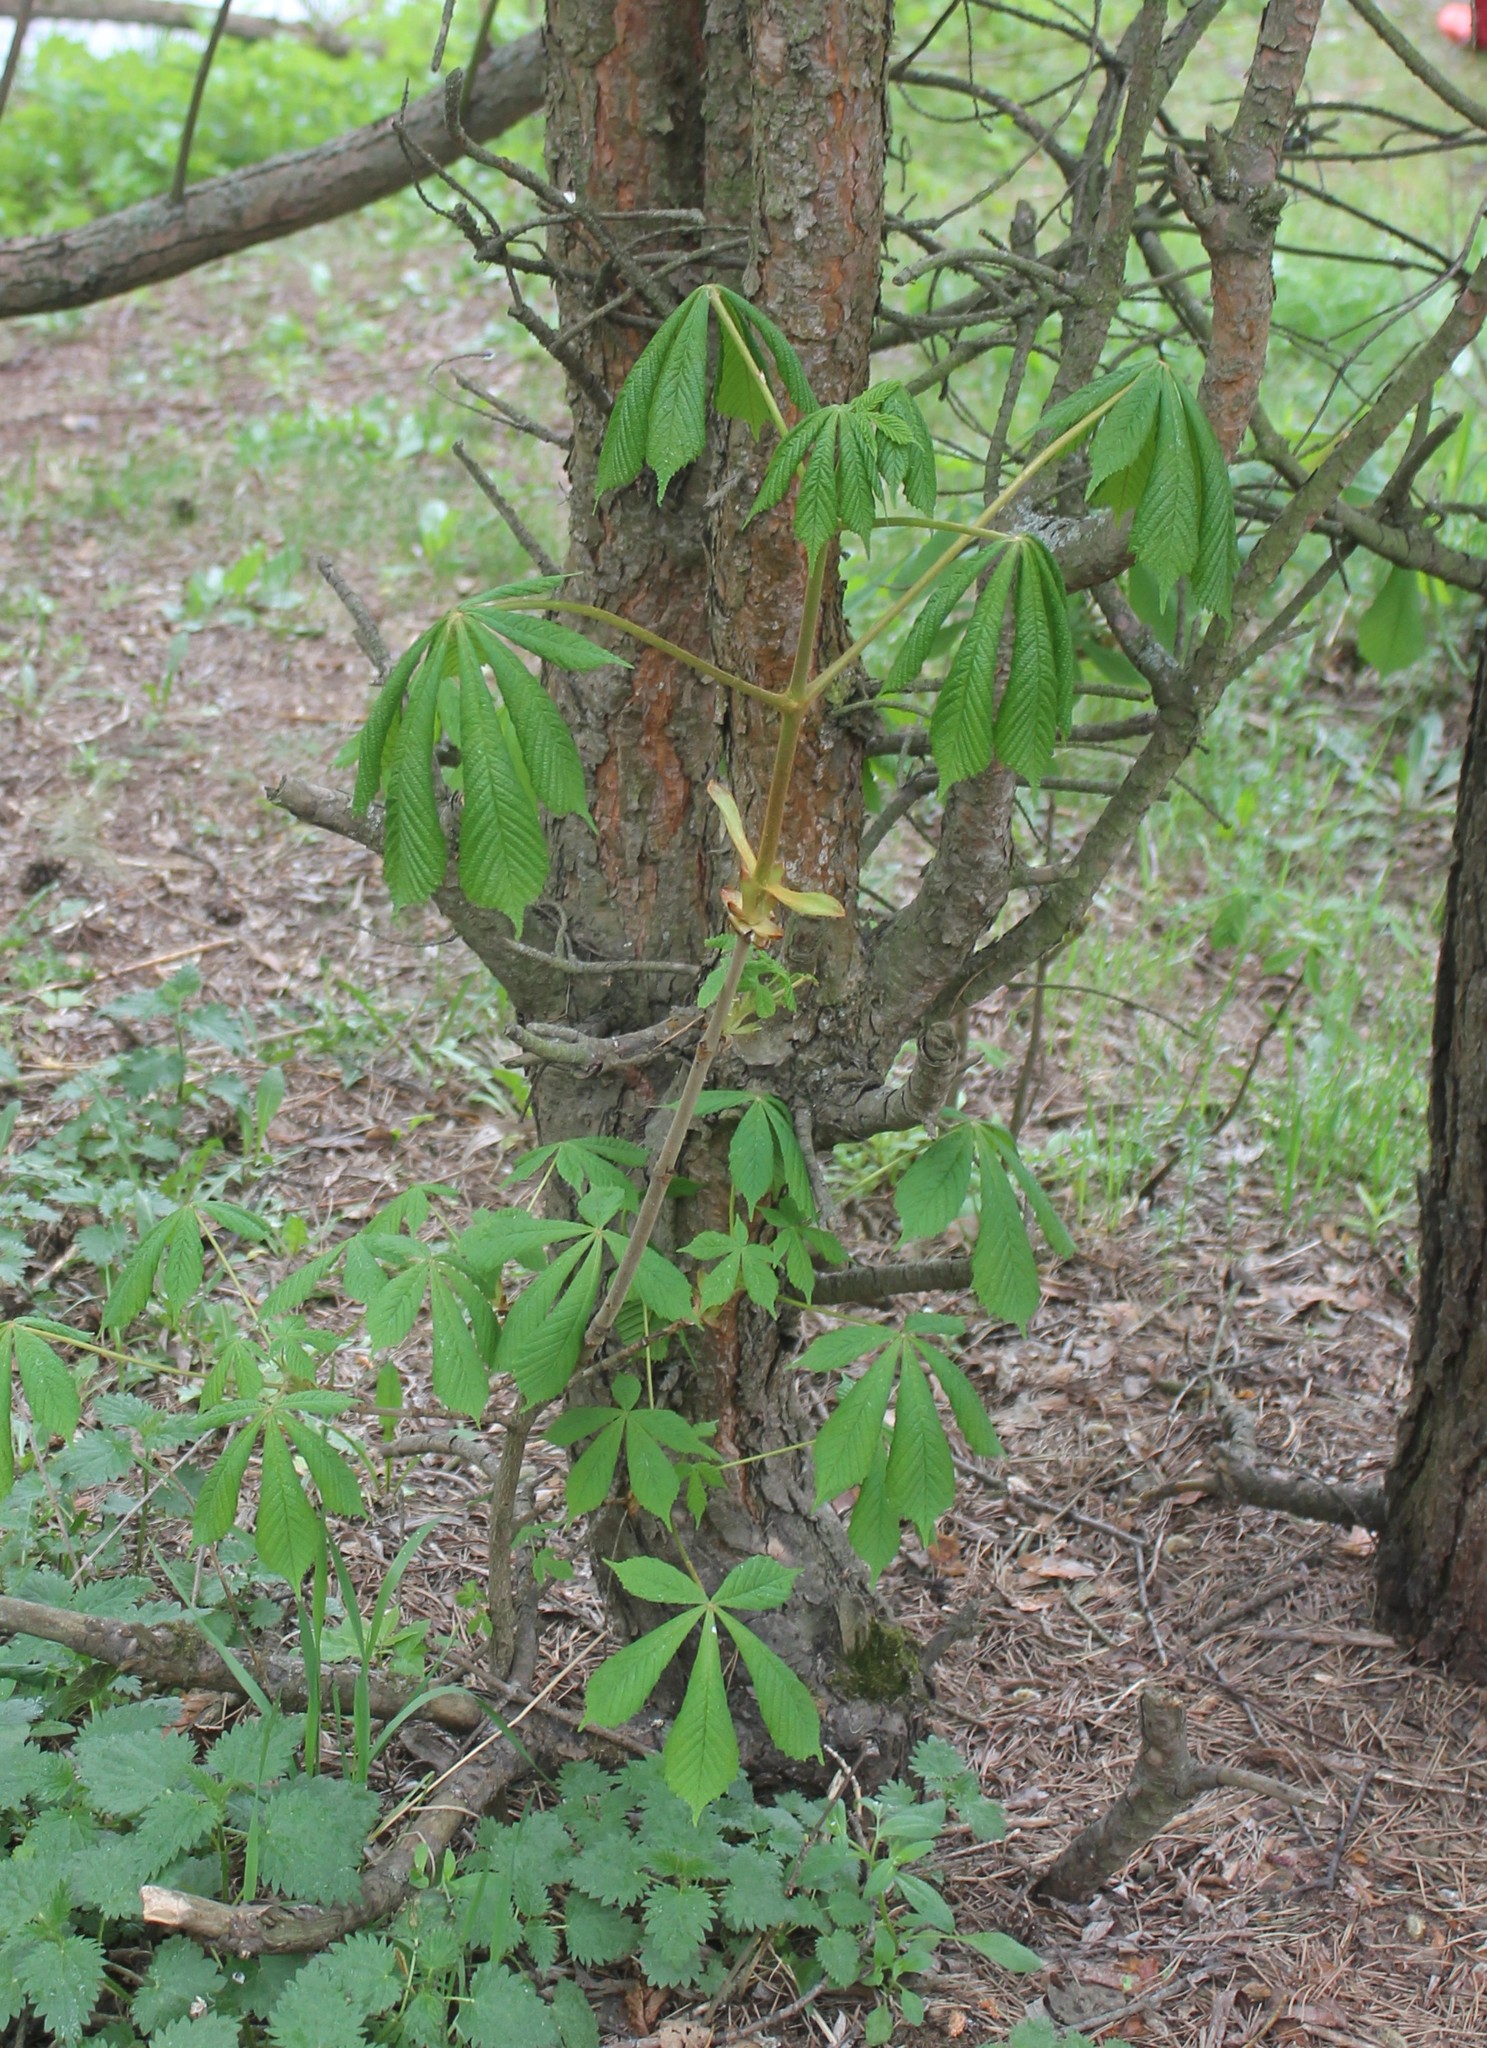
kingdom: Plantae
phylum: Tracheophyta
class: Magnoliopsida
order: Sapindales
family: Sapindaceae
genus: Aesculus
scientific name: Aesculus hippocastanum
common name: Horse-chestnut
